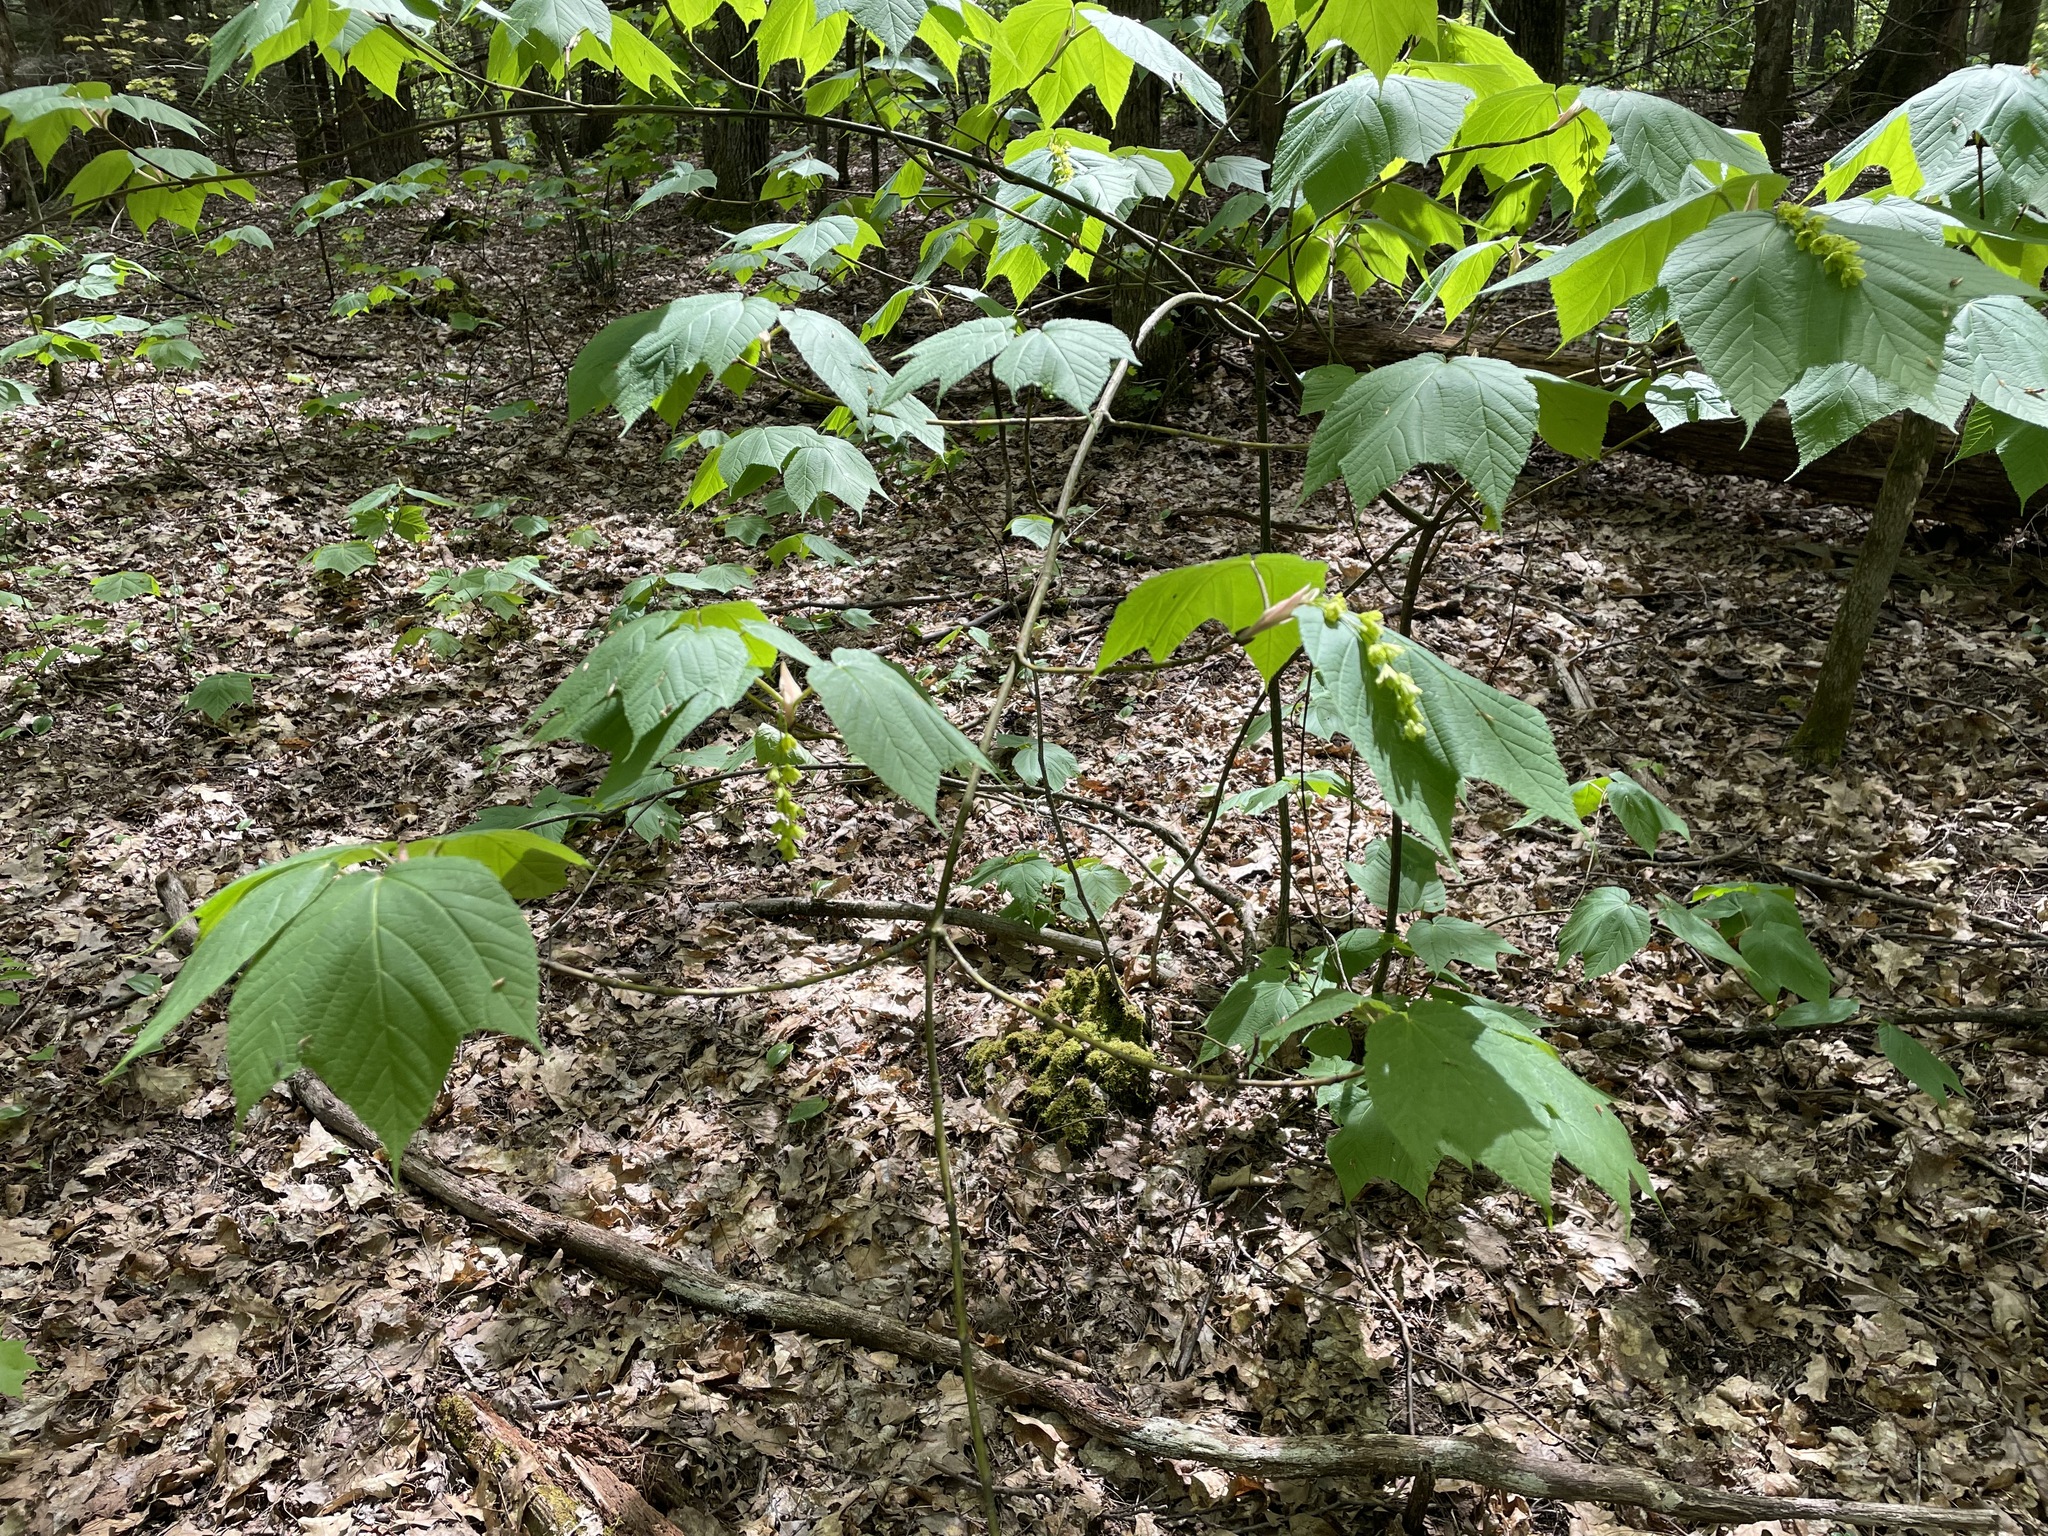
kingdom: Plantae
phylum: Tracheophyta
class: Magnoliopsida
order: Sapindales
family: Sapindaceae
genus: Acer
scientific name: Acer pensylvanicum
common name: Moosewood
